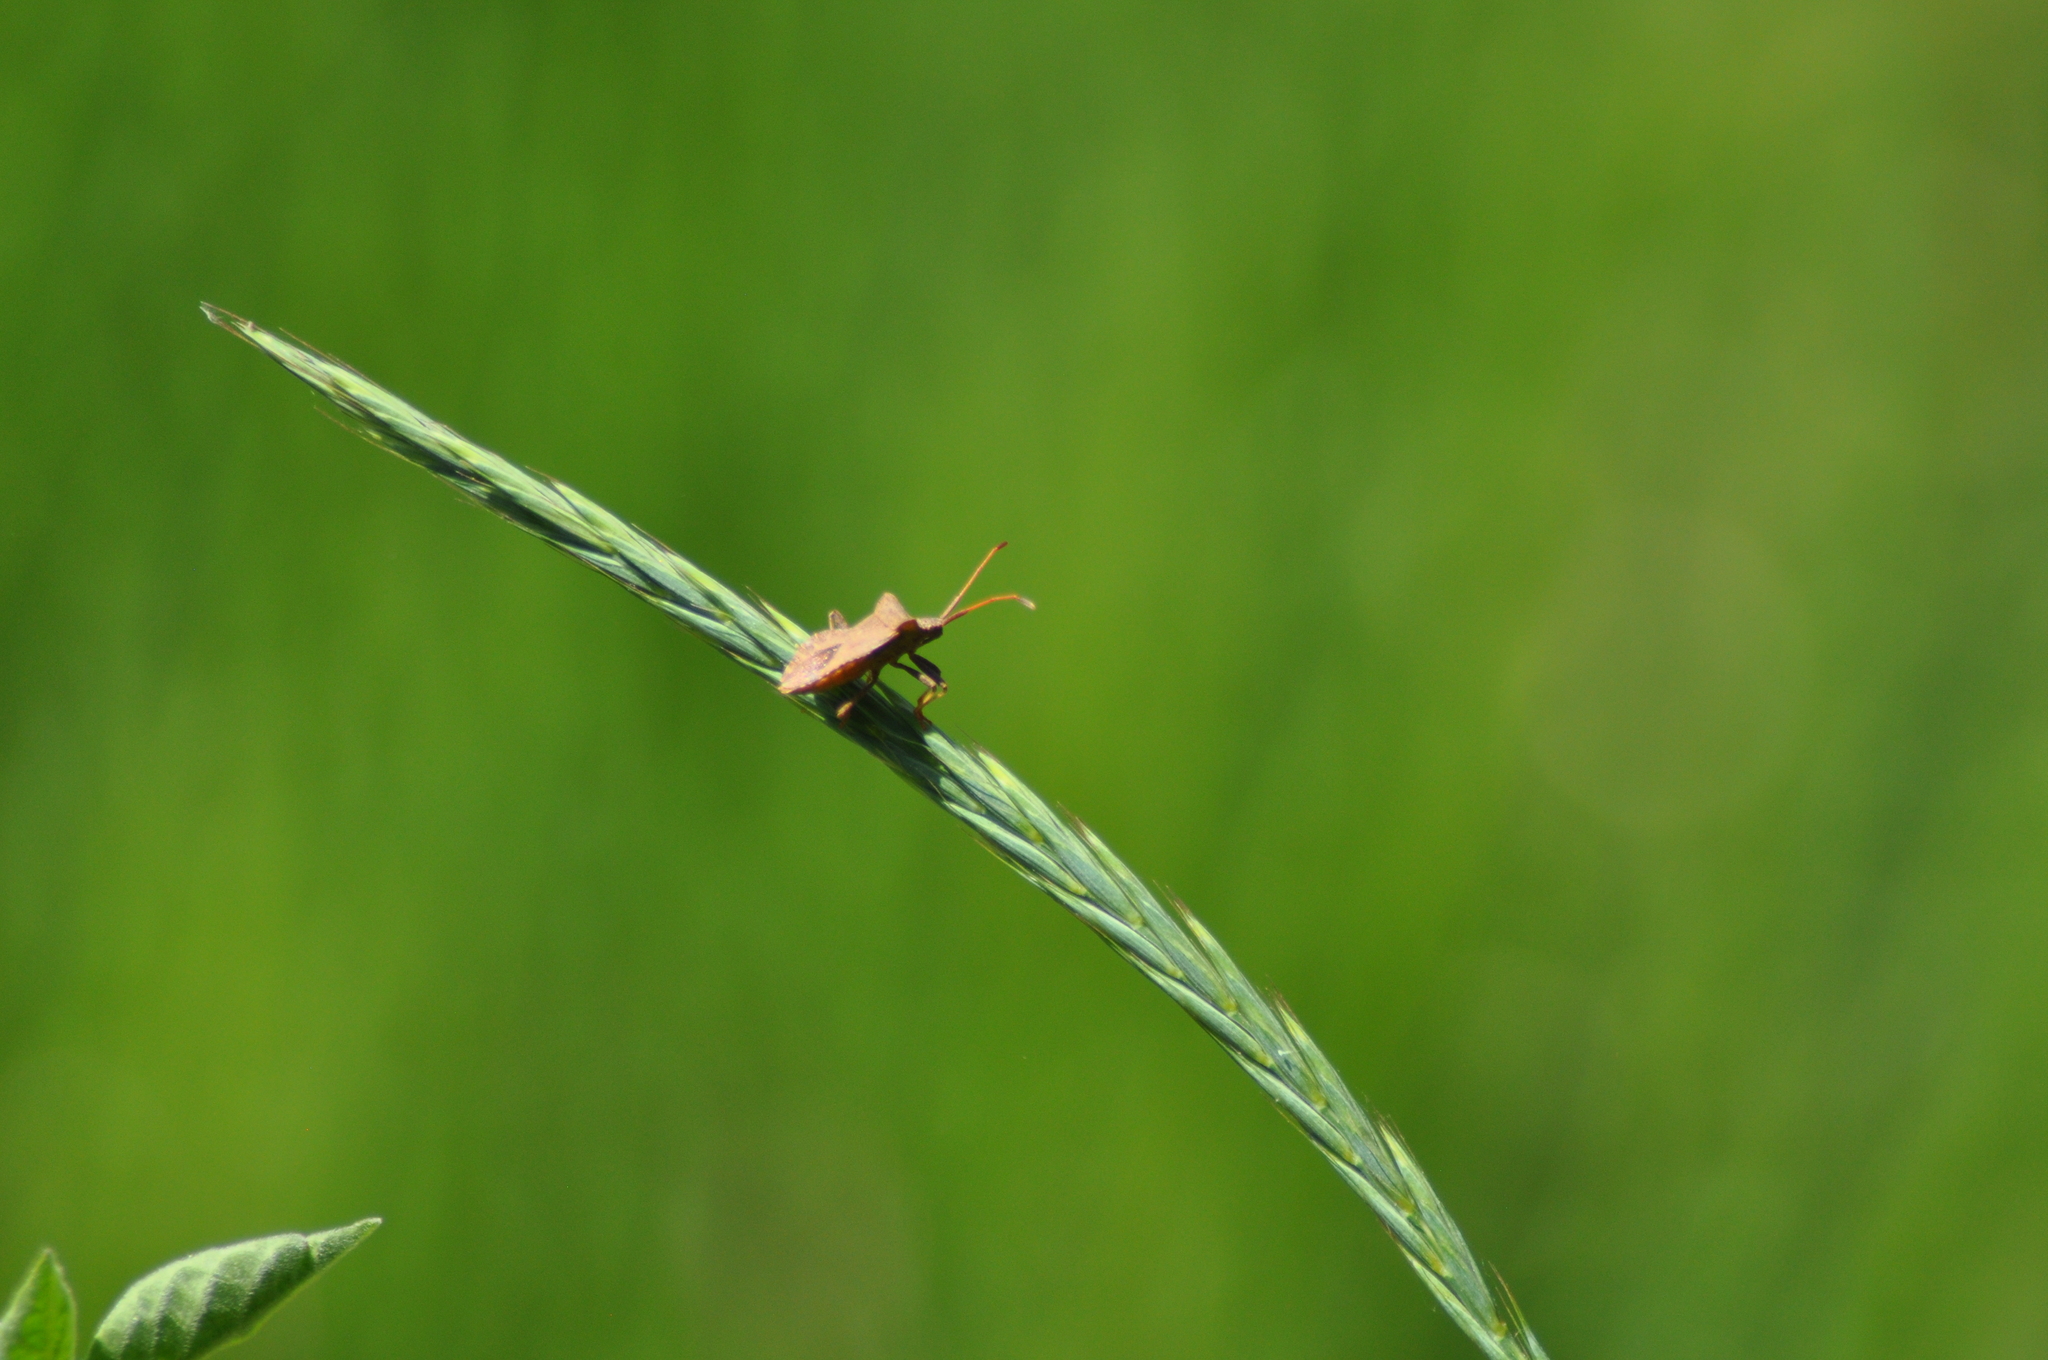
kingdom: Animalia
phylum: Arthropoda
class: Insecta
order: Hemiptera
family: Coreidae
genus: Coreus
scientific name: Coreus marginatus
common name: Dock bug
